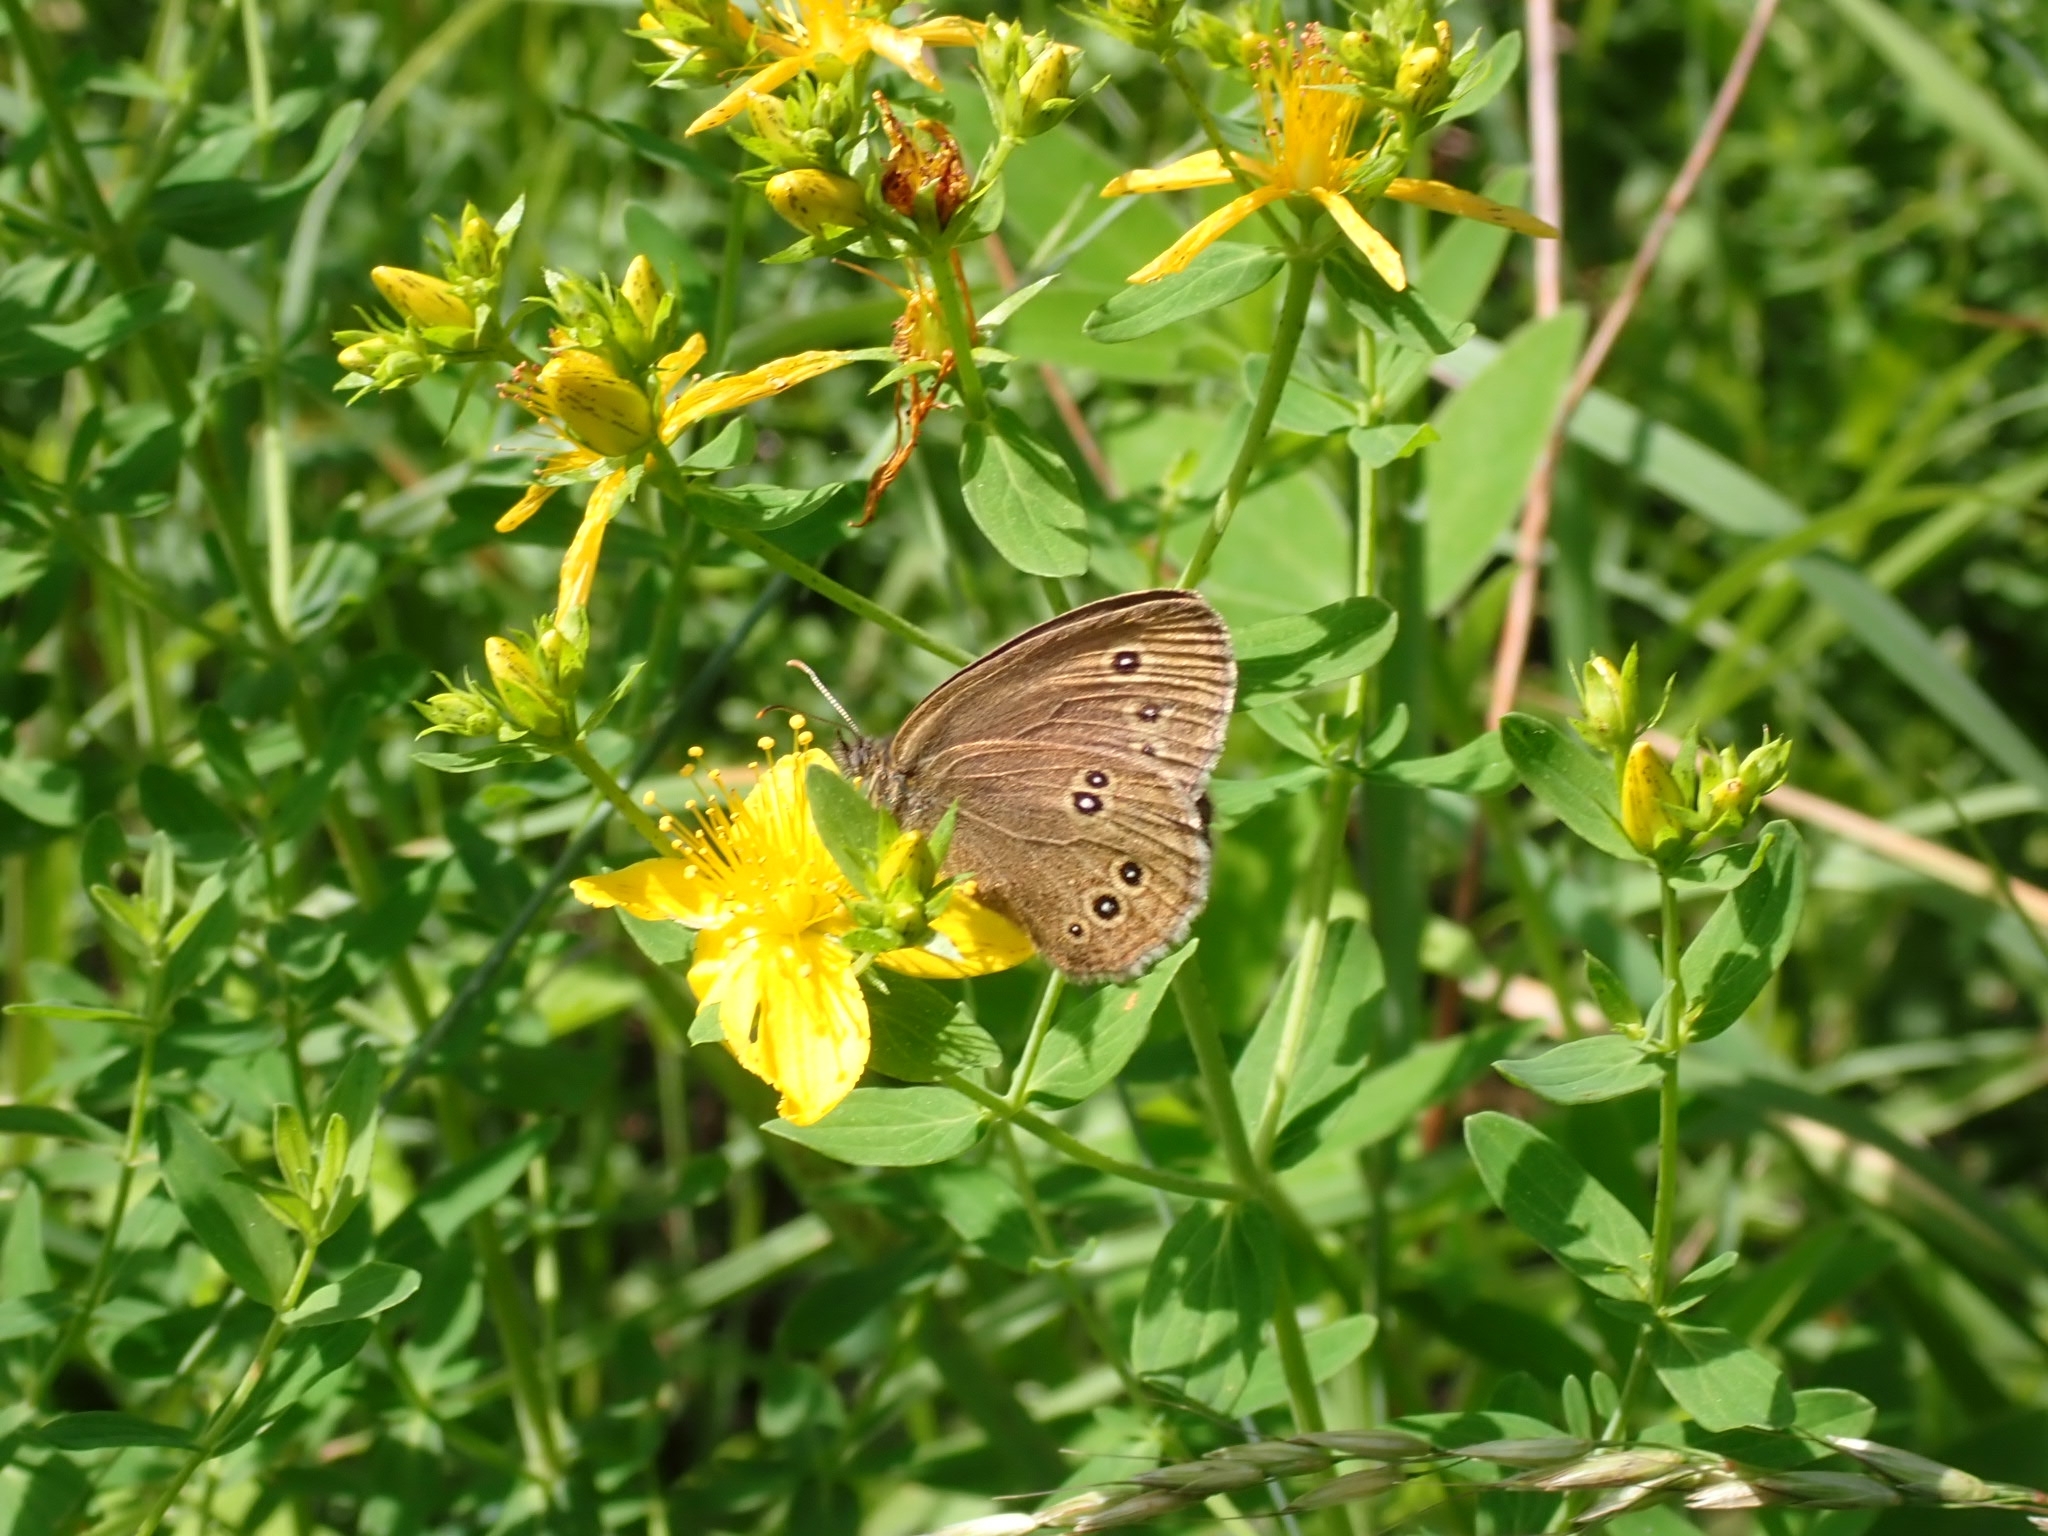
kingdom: Animalia
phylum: Arthropoda
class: Insecta
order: Lepidoptera
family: Nymphalidae
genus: Aphantopus
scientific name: Aphantopus hyperantus
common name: Ringlet
